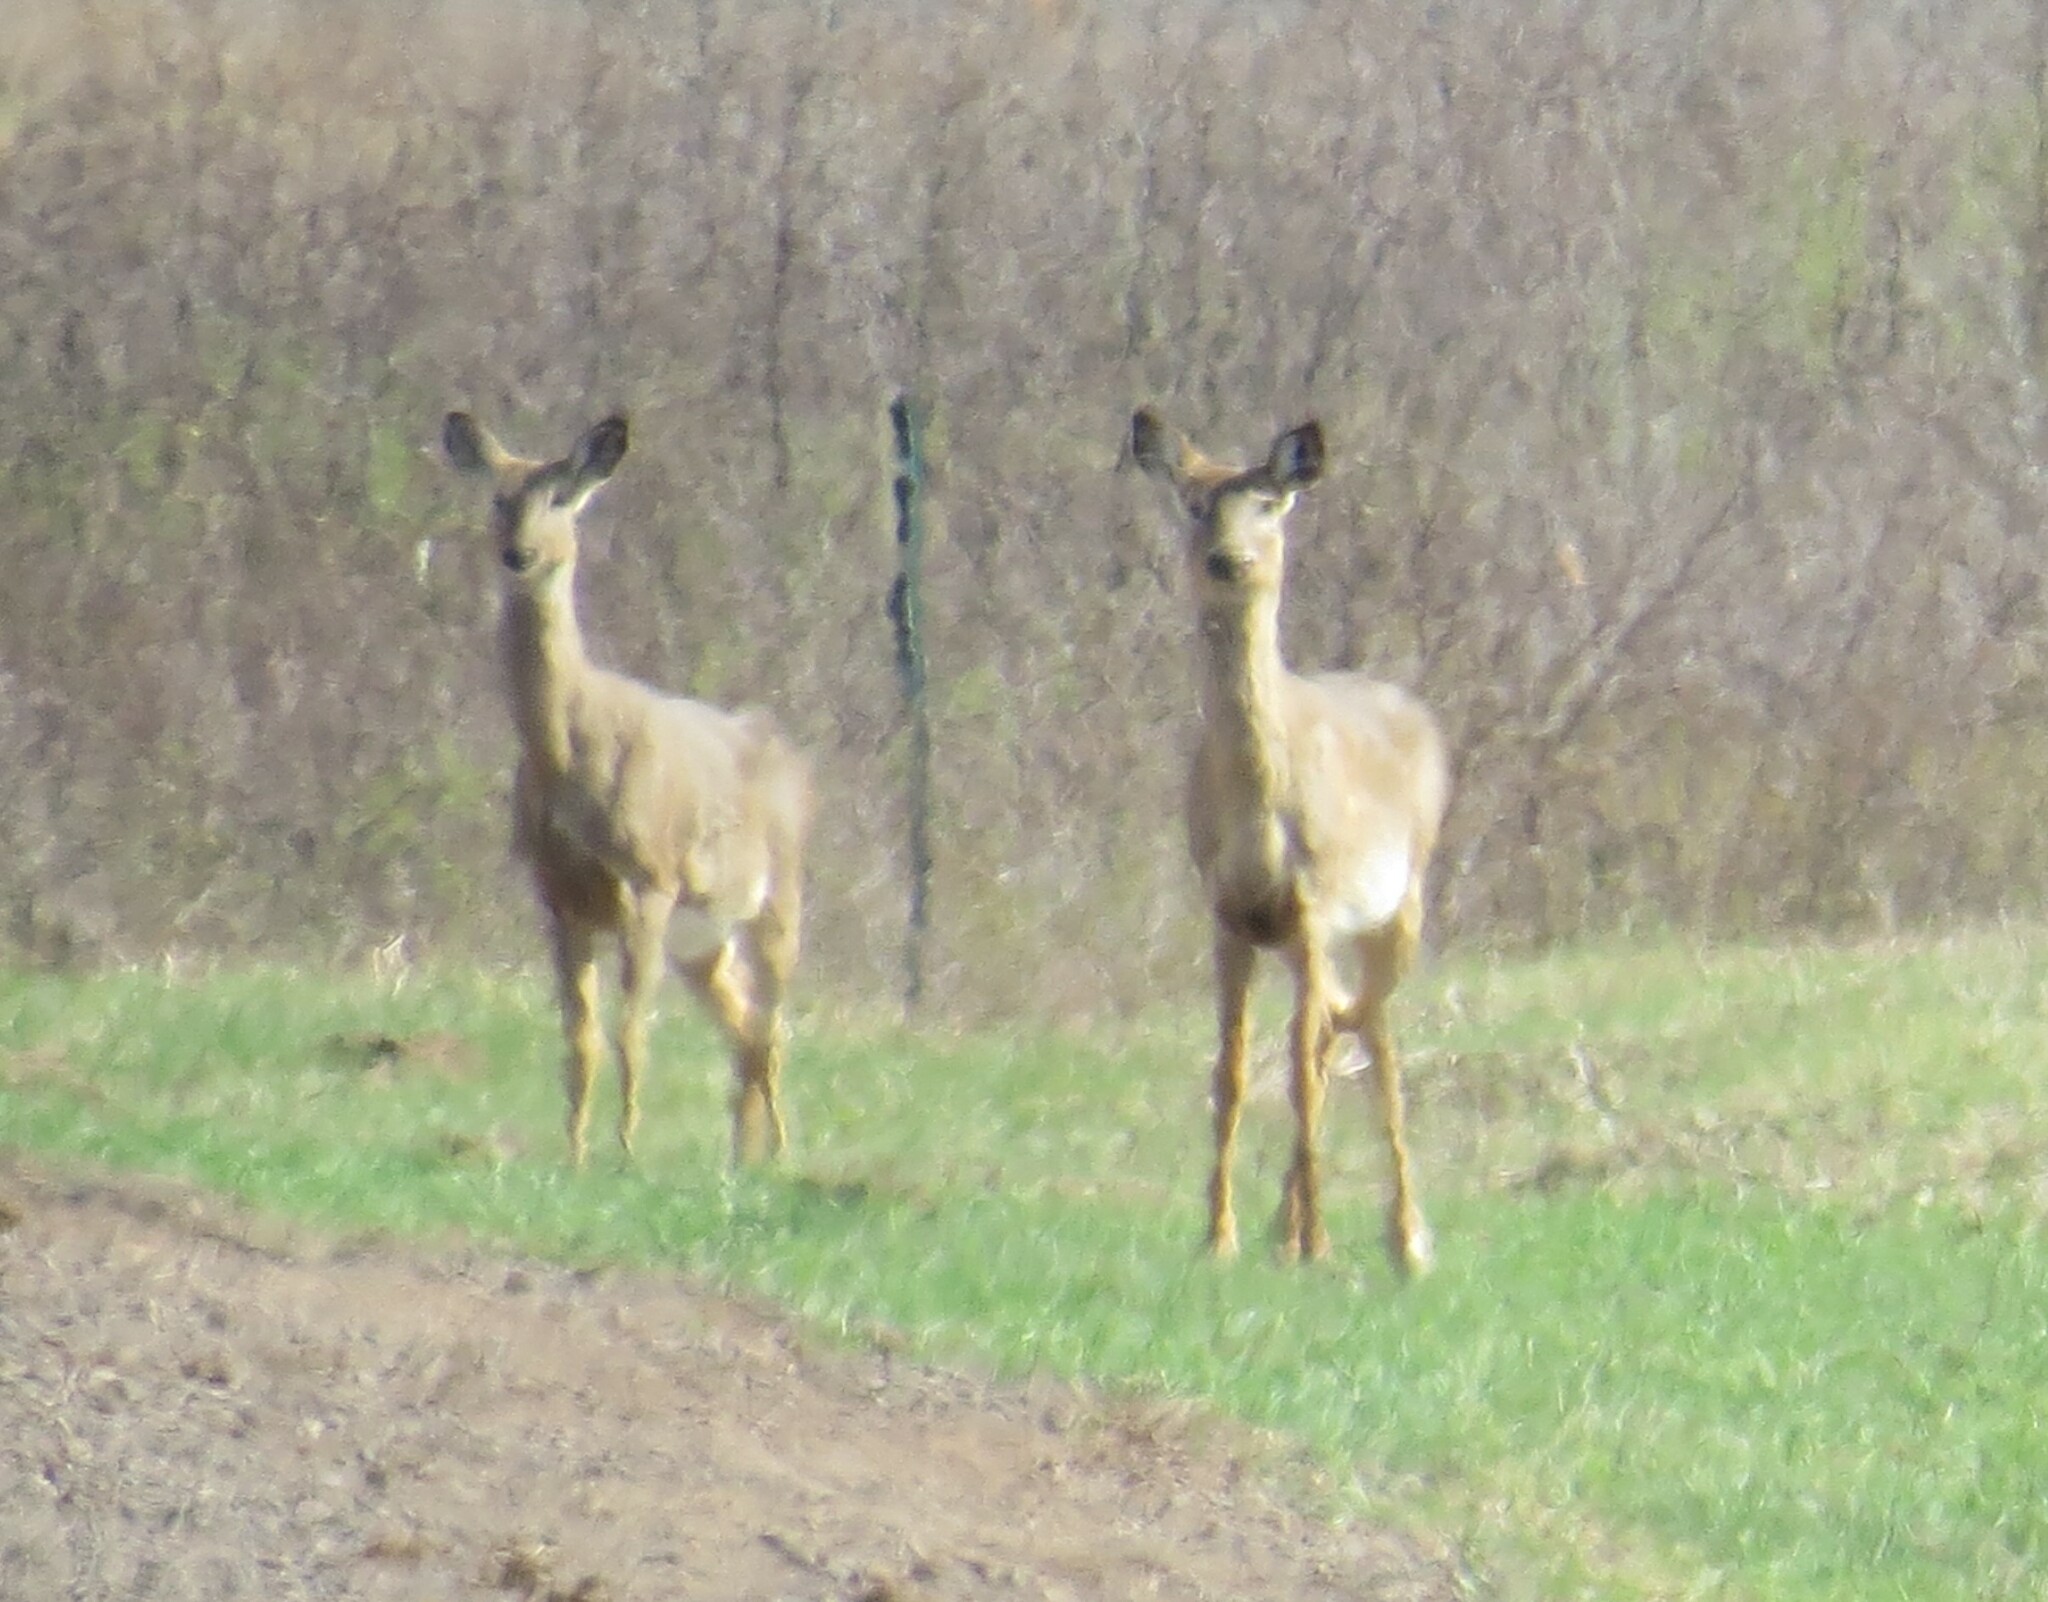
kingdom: Animalia
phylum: Chordata
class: Mammalia
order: Artiodactyla
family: Cervidae
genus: Odocoileus
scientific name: Odocoileus virginianus
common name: White-tailed deer
